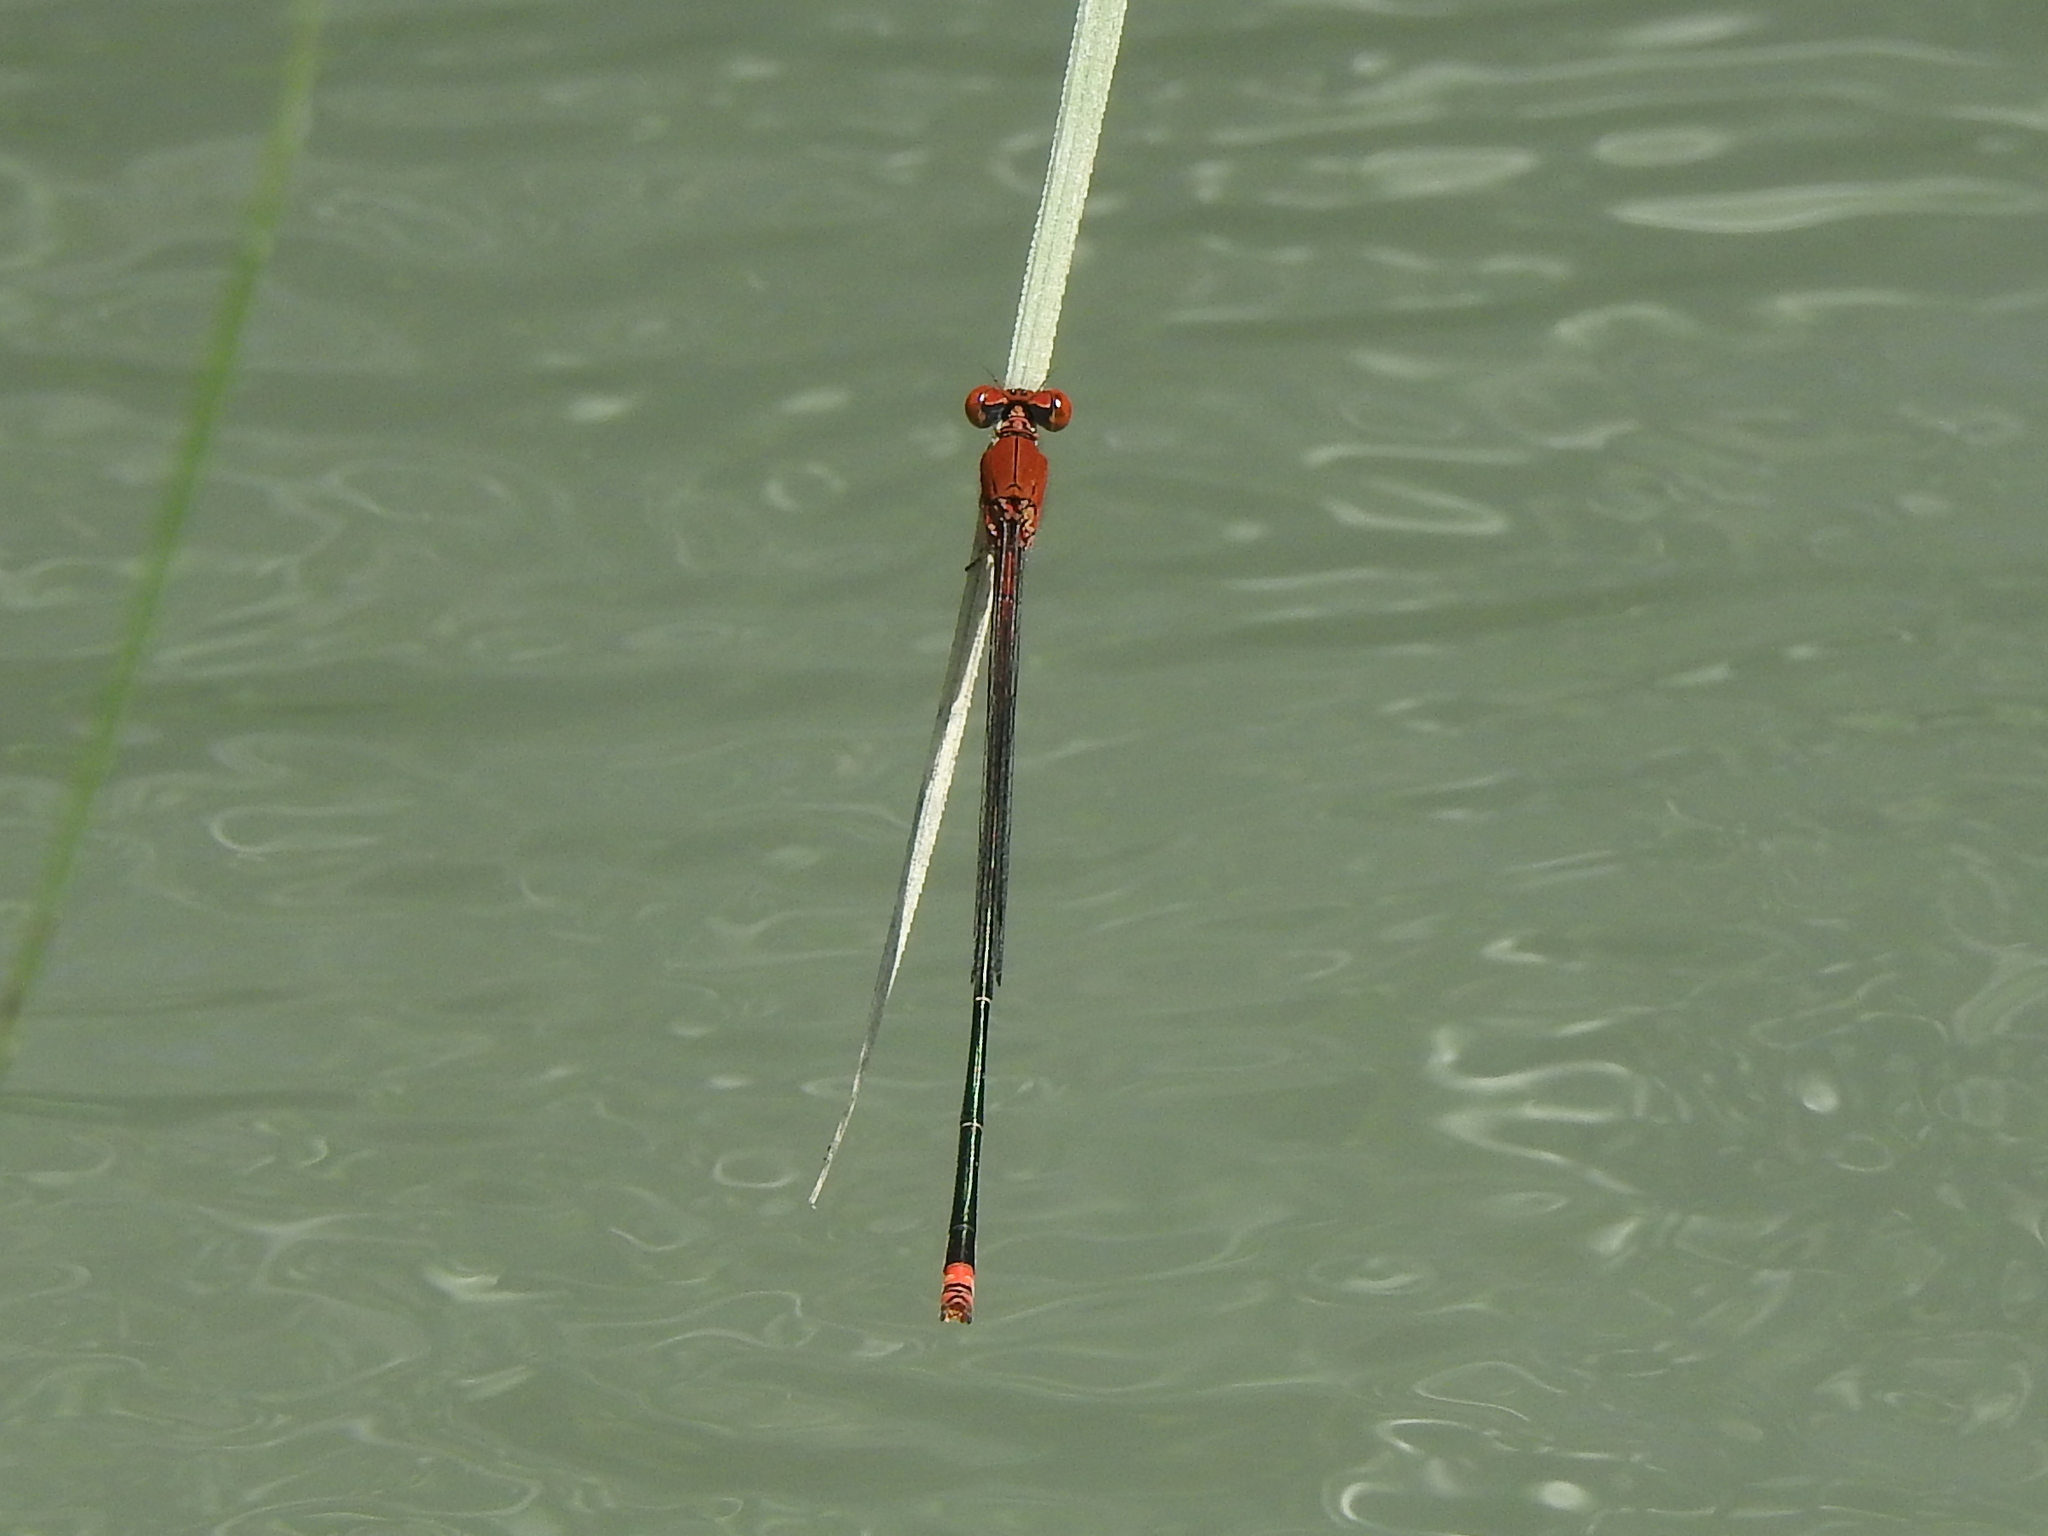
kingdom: Animalia
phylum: Arthropoda
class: Insecta
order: Odonata
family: Coenagrionidae
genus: Pseudagrion
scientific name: Pseudagrion pilidorsum
